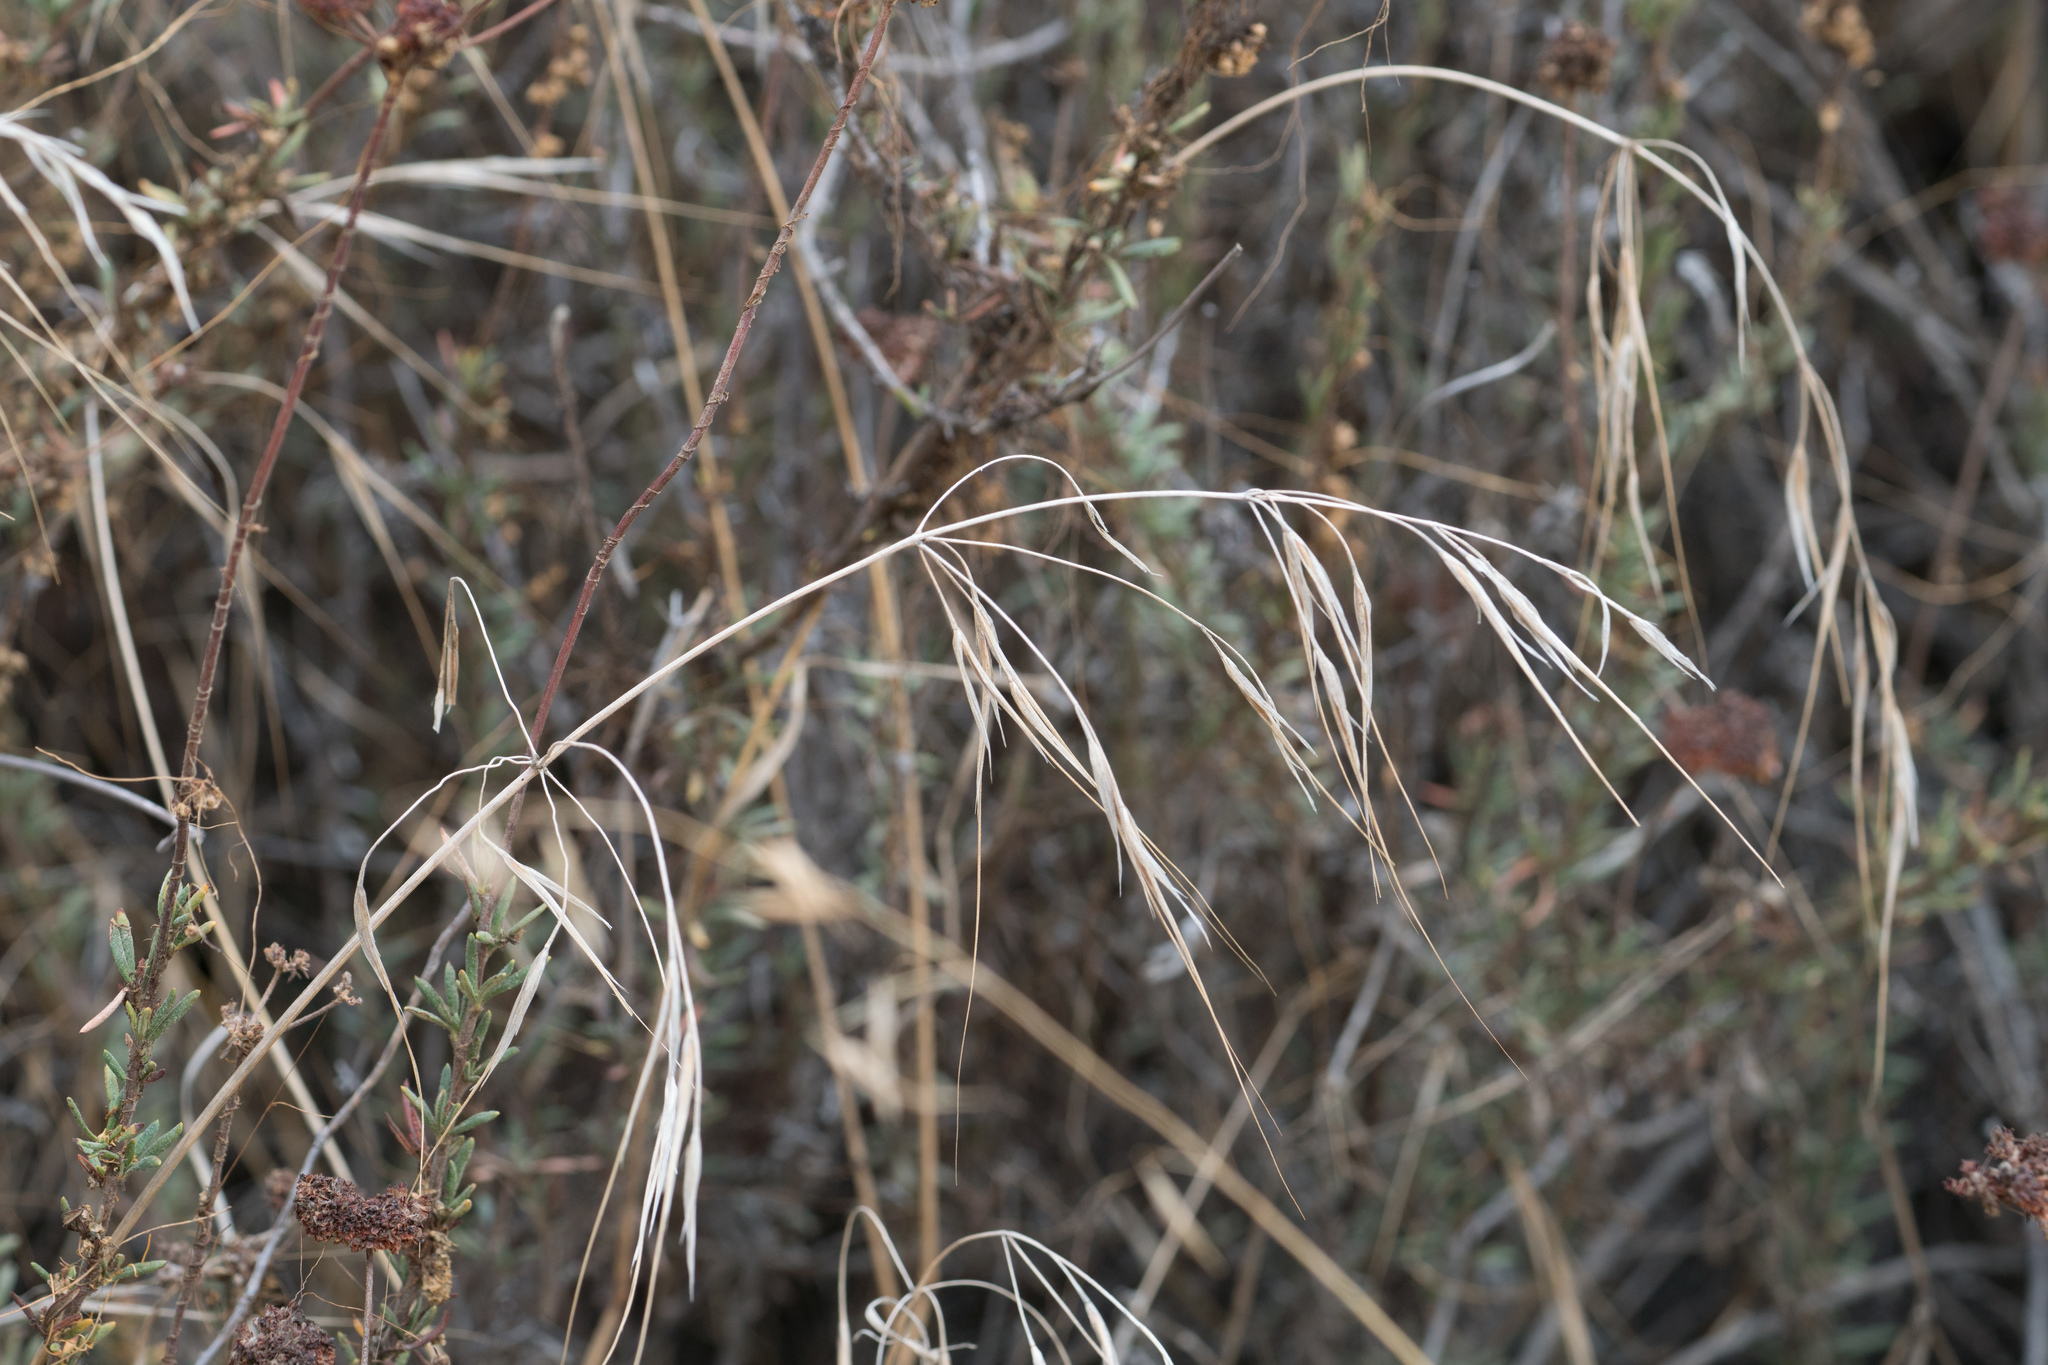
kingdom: Plantae
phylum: Tracheophyta
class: Liliopsida
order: Poales
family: Poaceae
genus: Bromus
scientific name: Bromus diandrus
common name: Ripgut brome
